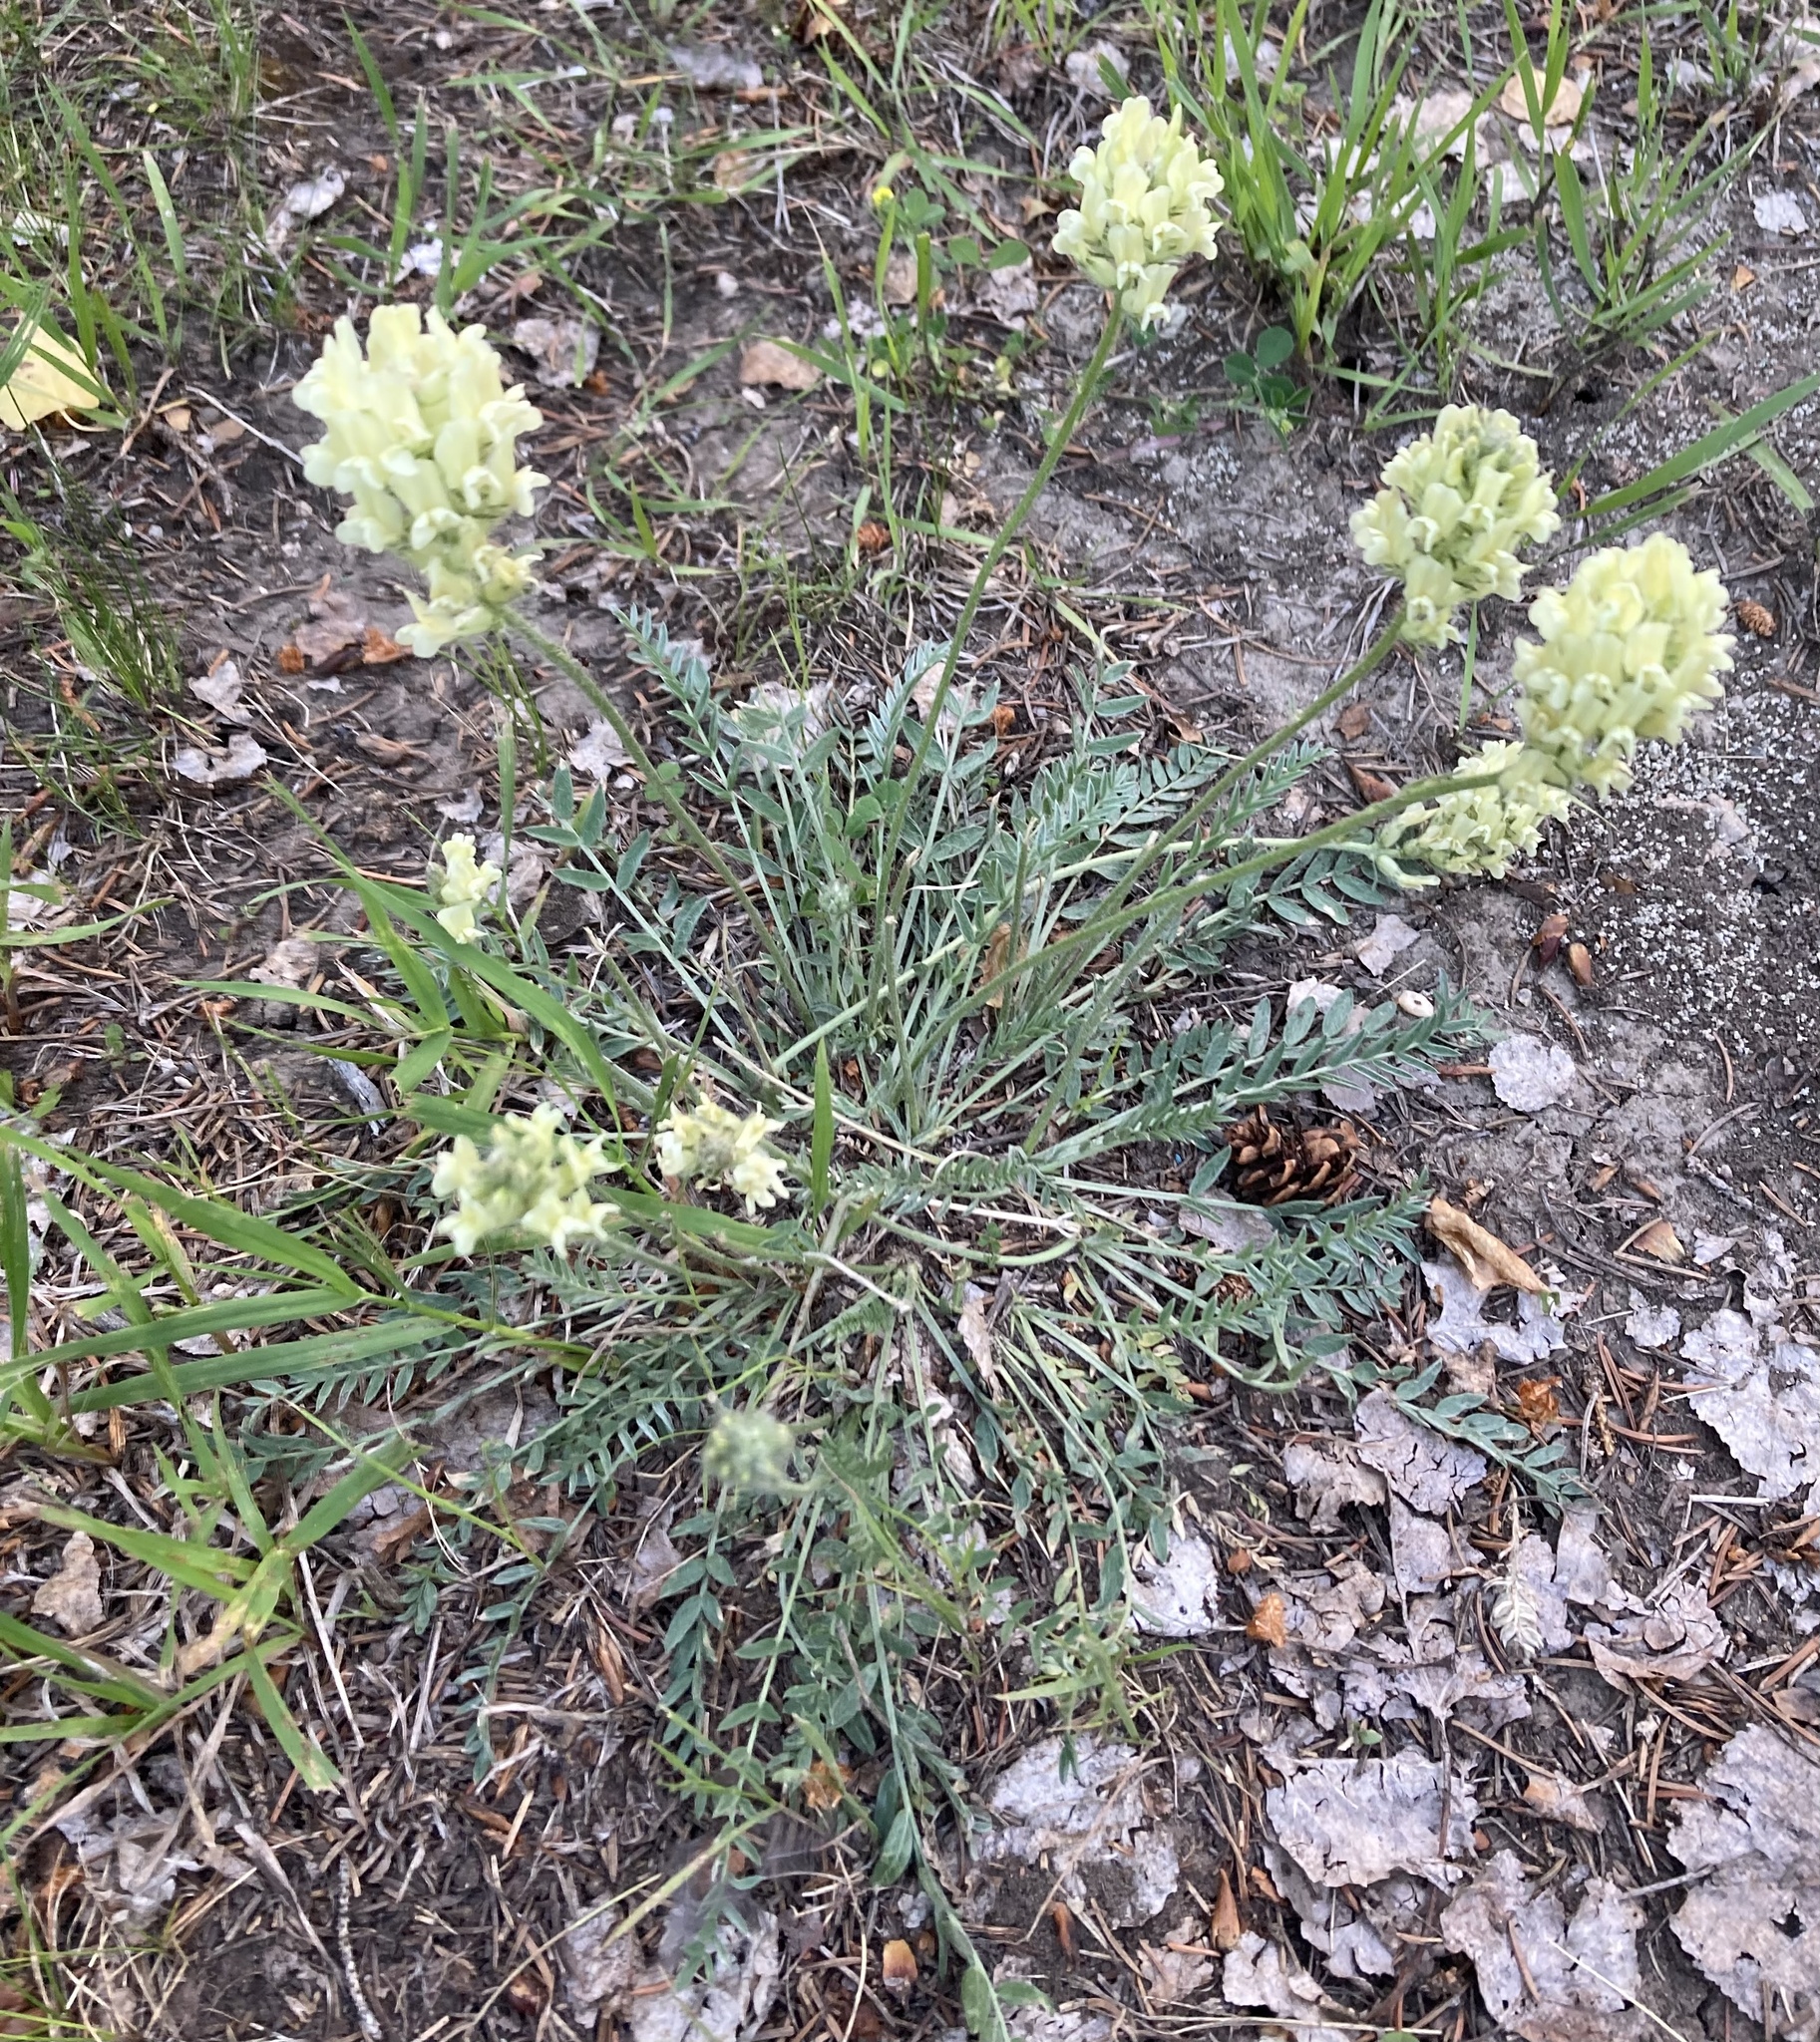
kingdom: Plantae
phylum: Tracheophyta
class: Magnoliopsida
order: Fabales
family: Fabaceae
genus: Oxytropis
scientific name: Oxytropis campestris
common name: Field locoweed
